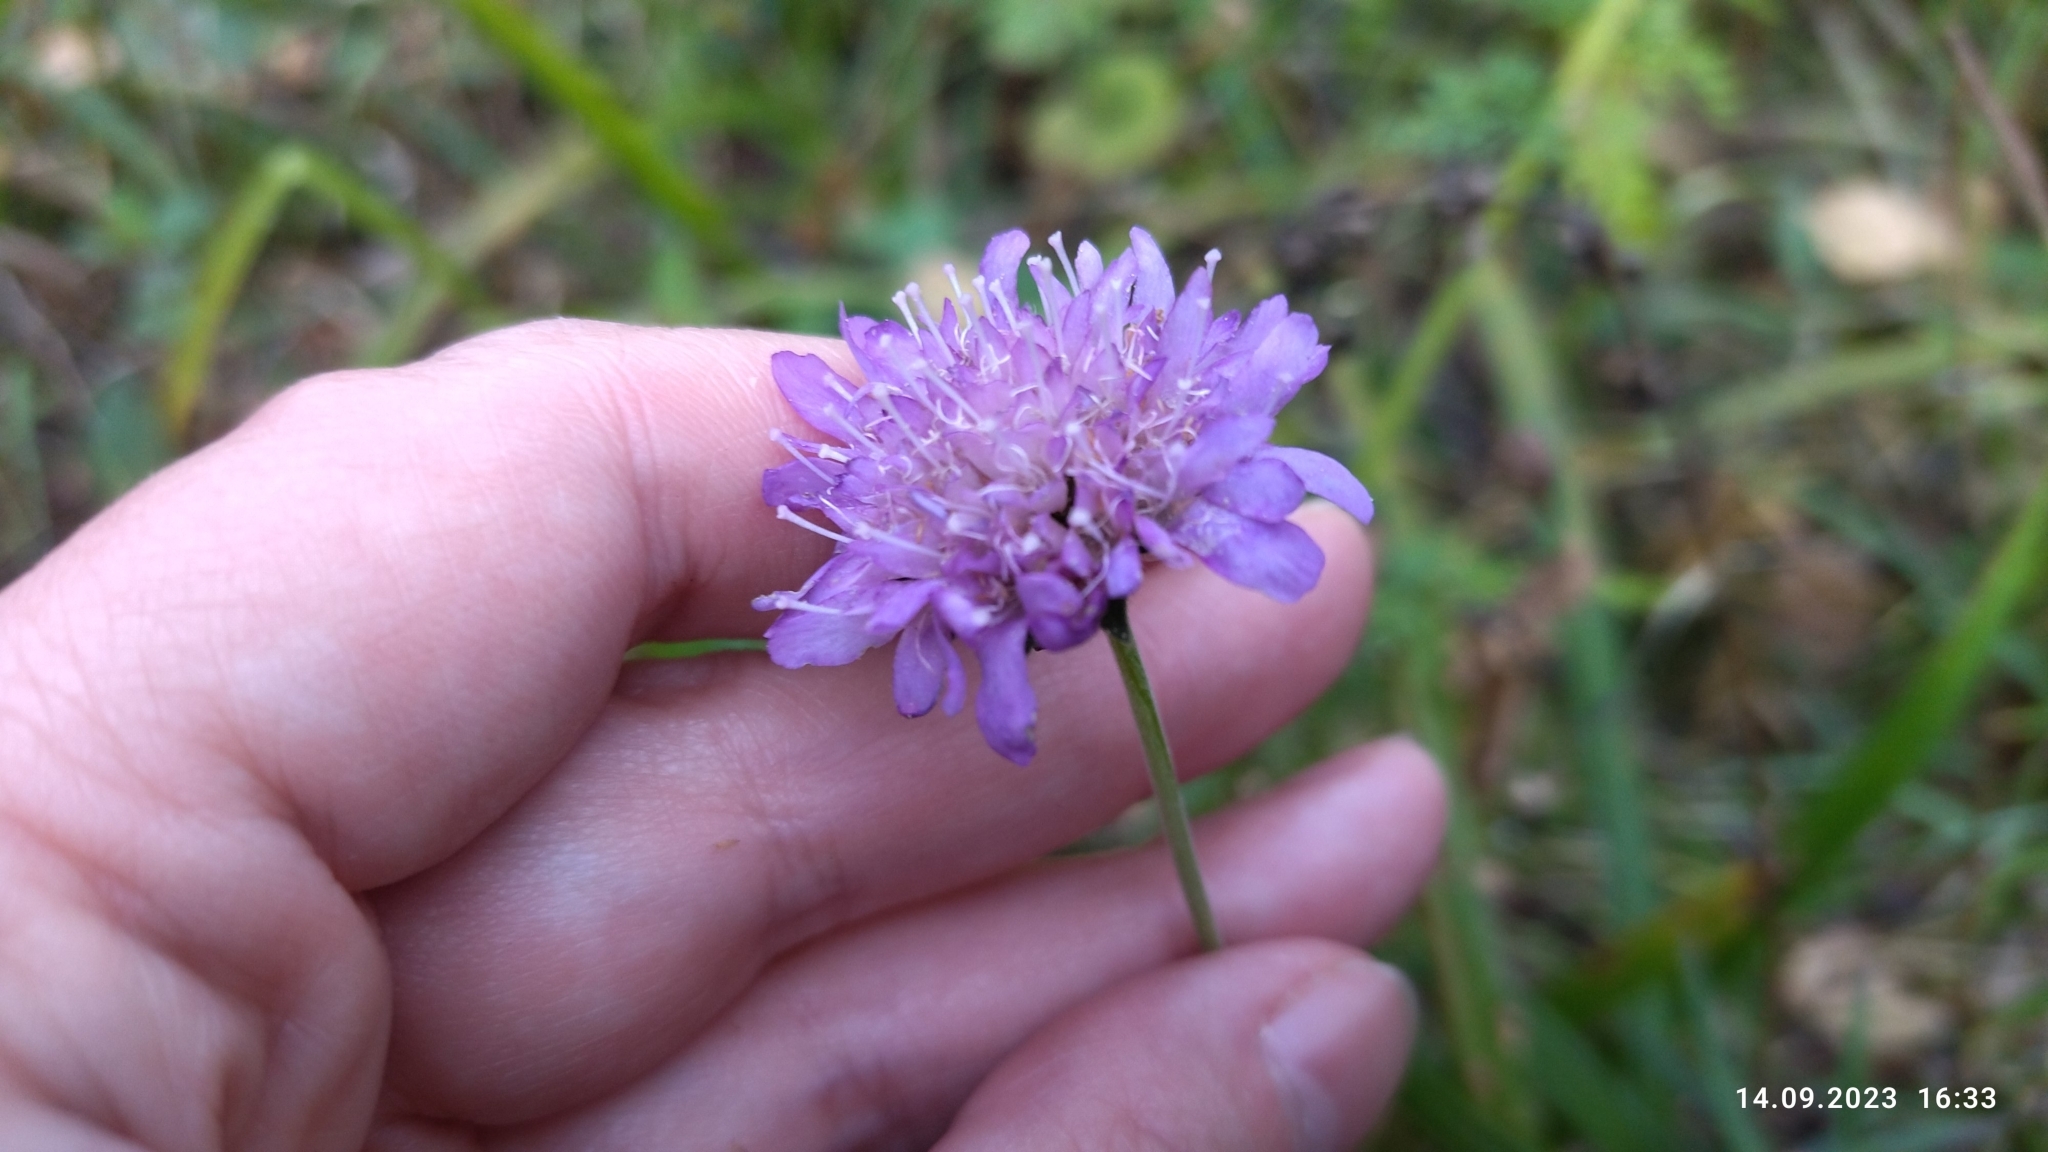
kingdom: Plantae
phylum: Tracheophyta
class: Magnoliopsida
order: Dipsacales
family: Caprifoliaceae
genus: Knautia
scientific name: Knautia arvensis
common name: Field scabiosa
